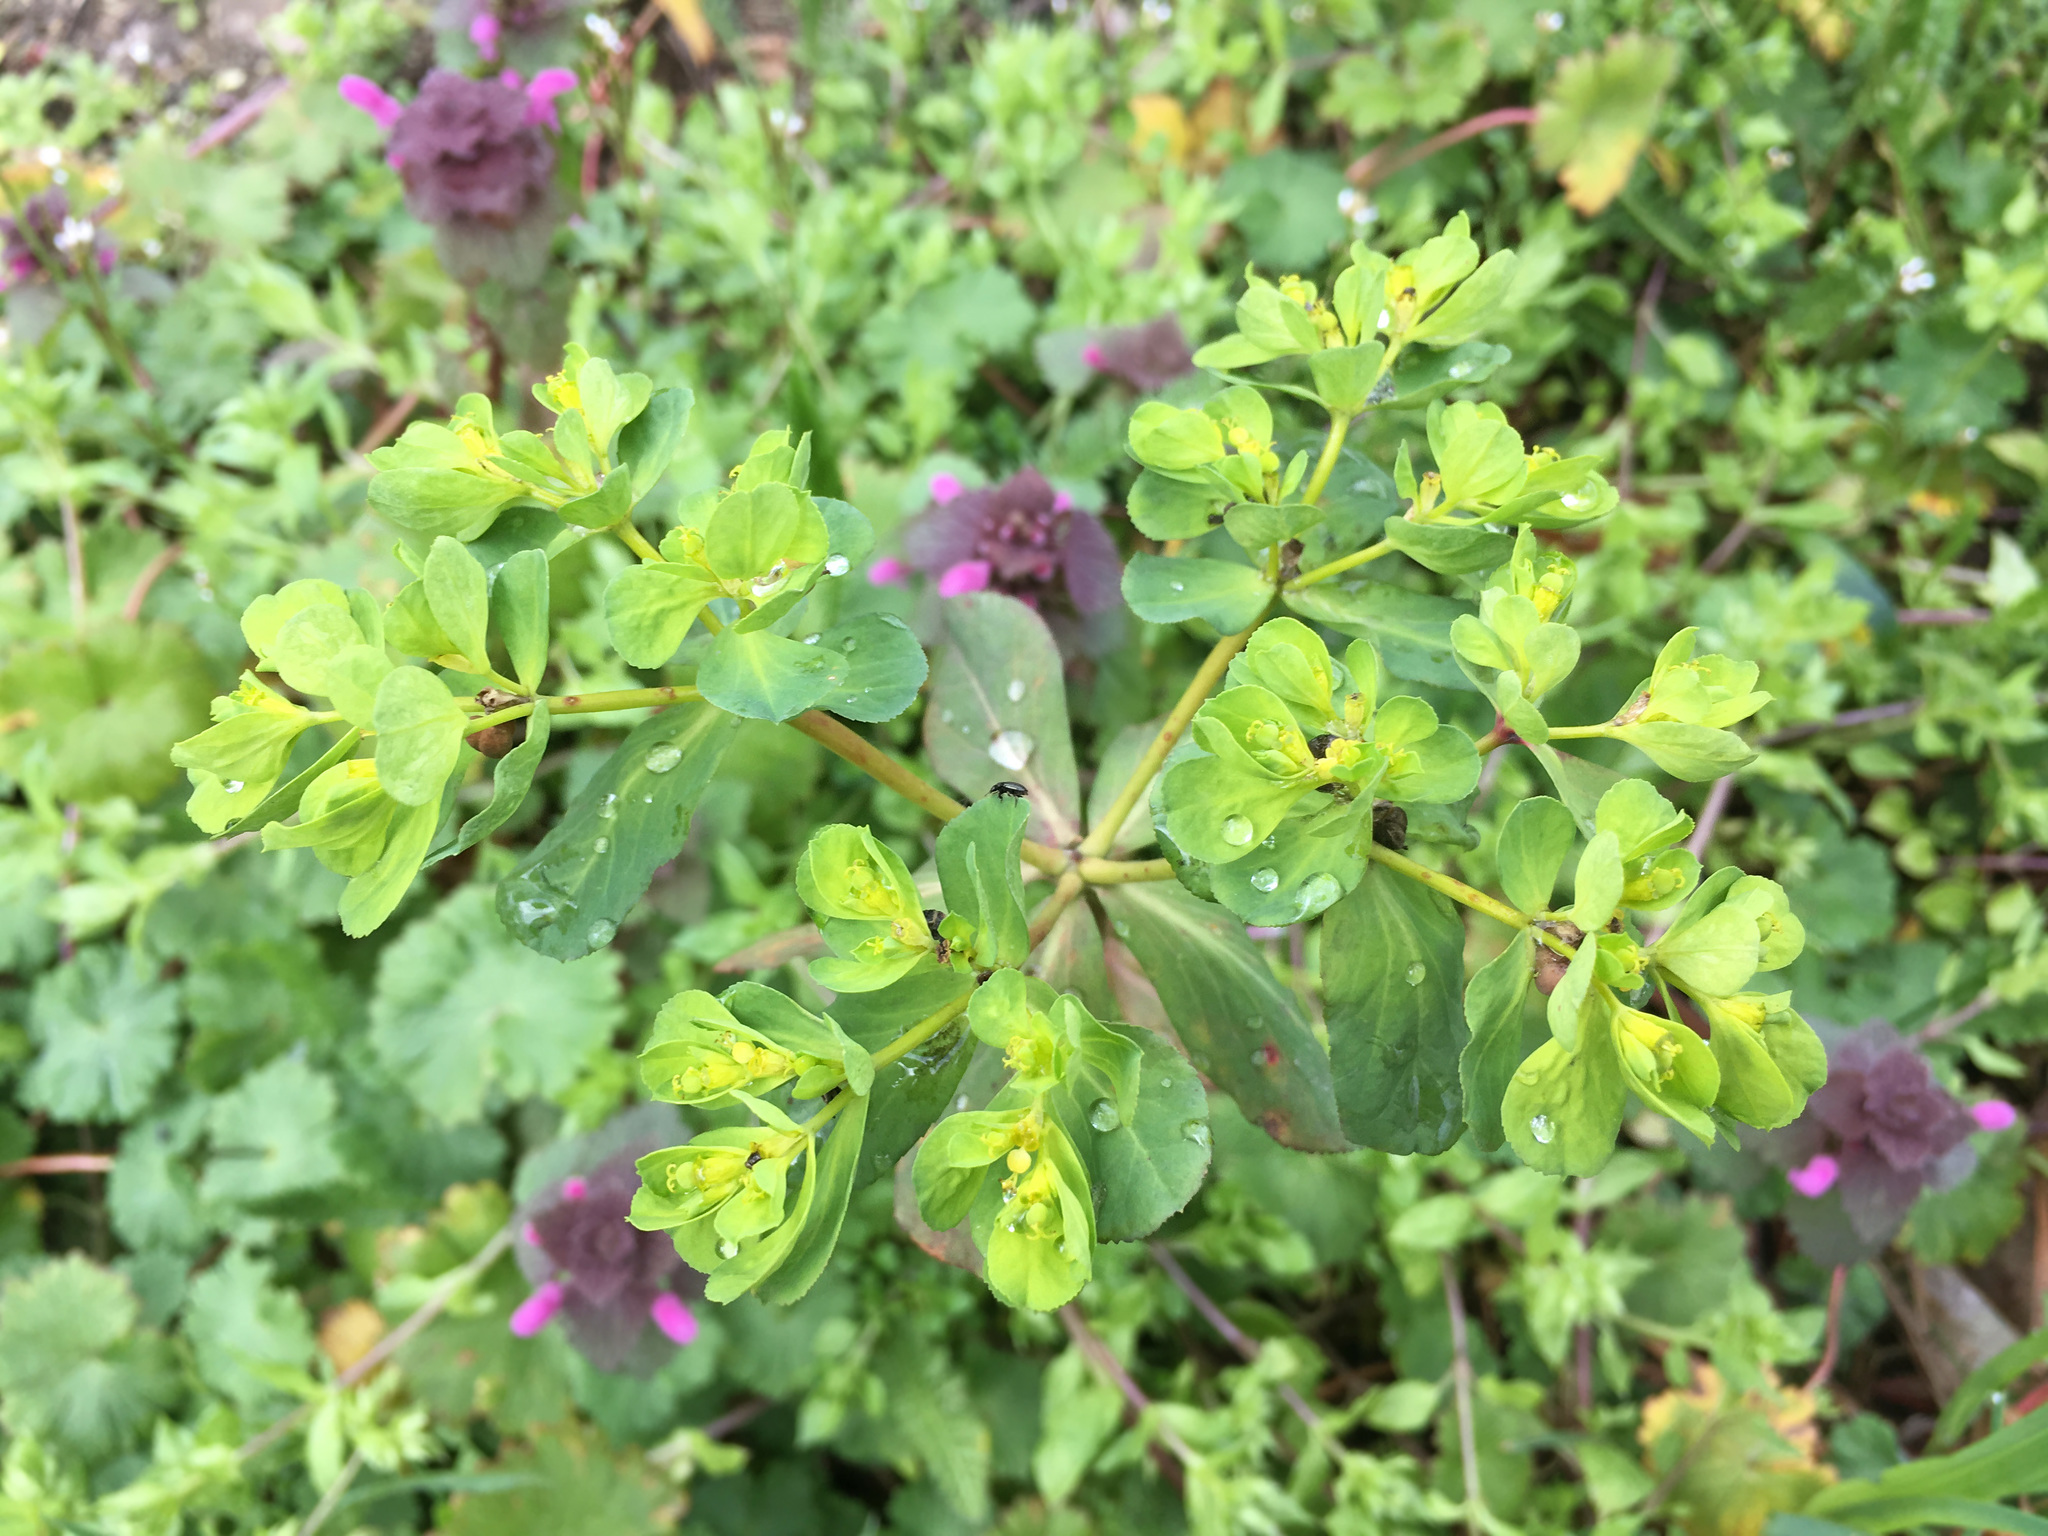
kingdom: Plantae
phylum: Tracheophyta
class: Magnoliopsida
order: Malpighiales
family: Euphorbiaceae
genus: Euphorbia
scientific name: Euphorbia helioscopia
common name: Sun spurge
